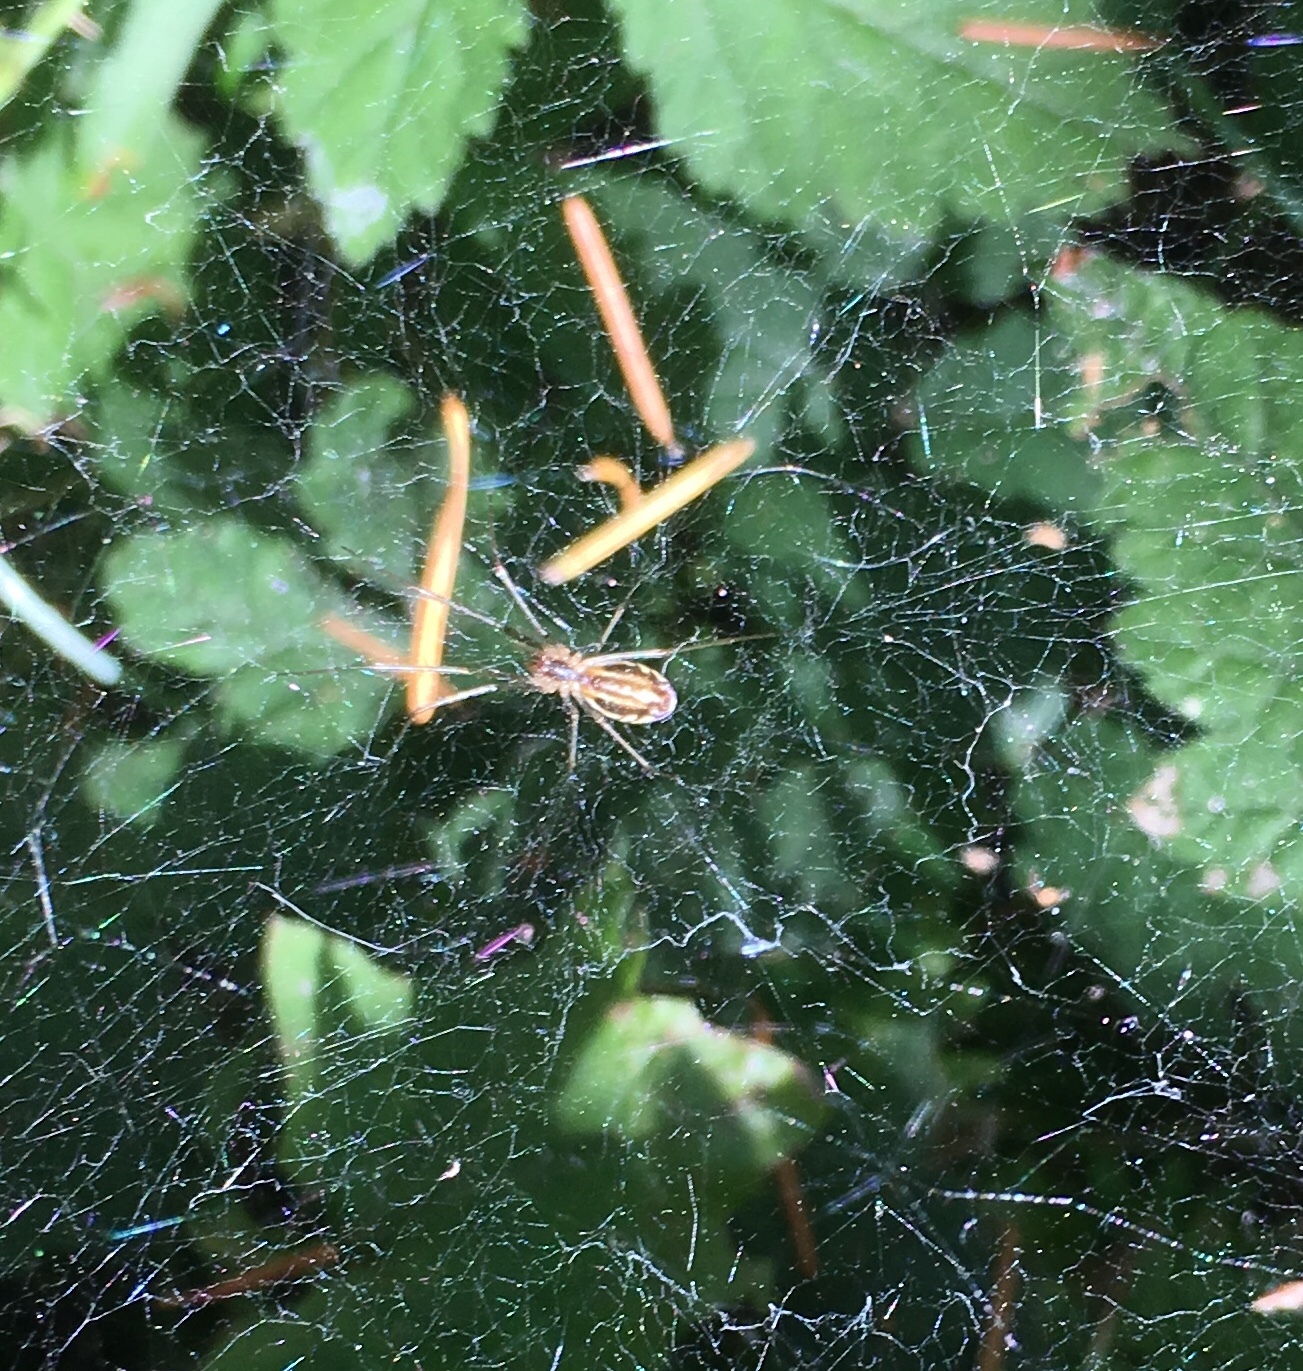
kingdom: Animalia
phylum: Arthropoda
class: Arachnida
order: Araneae
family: Linyphiidae
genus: Neriene
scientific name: Neriene litigiosa
